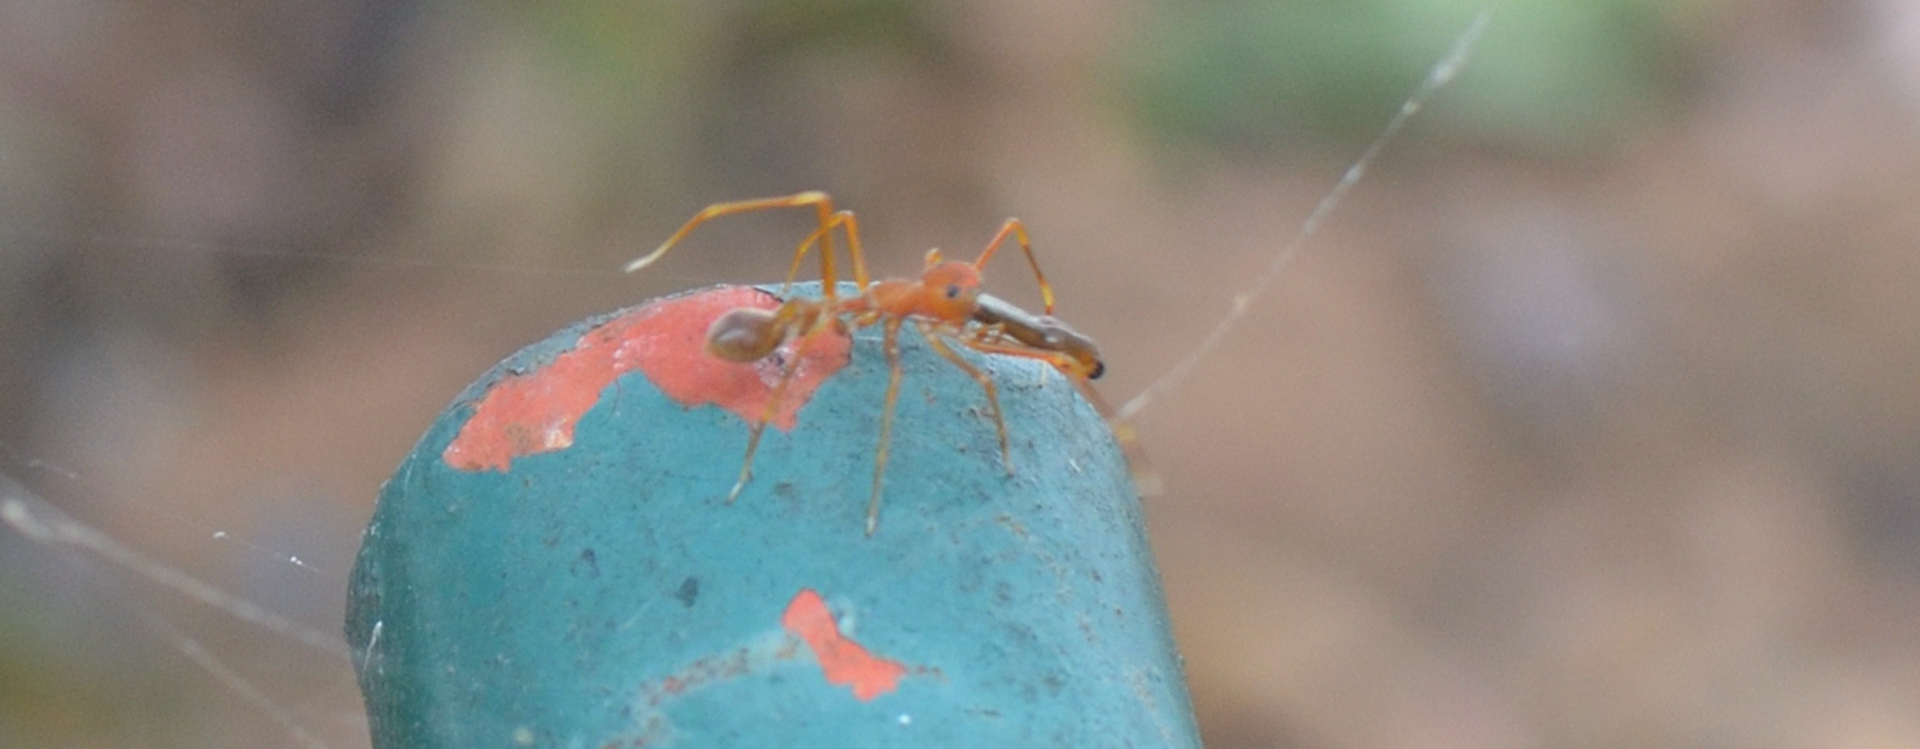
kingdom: Animalia
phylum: Arthropoda
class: Arachnida
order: Araneae
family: Salticidae
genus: Myrmaplata
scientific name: Myrmaplata plataleoides
